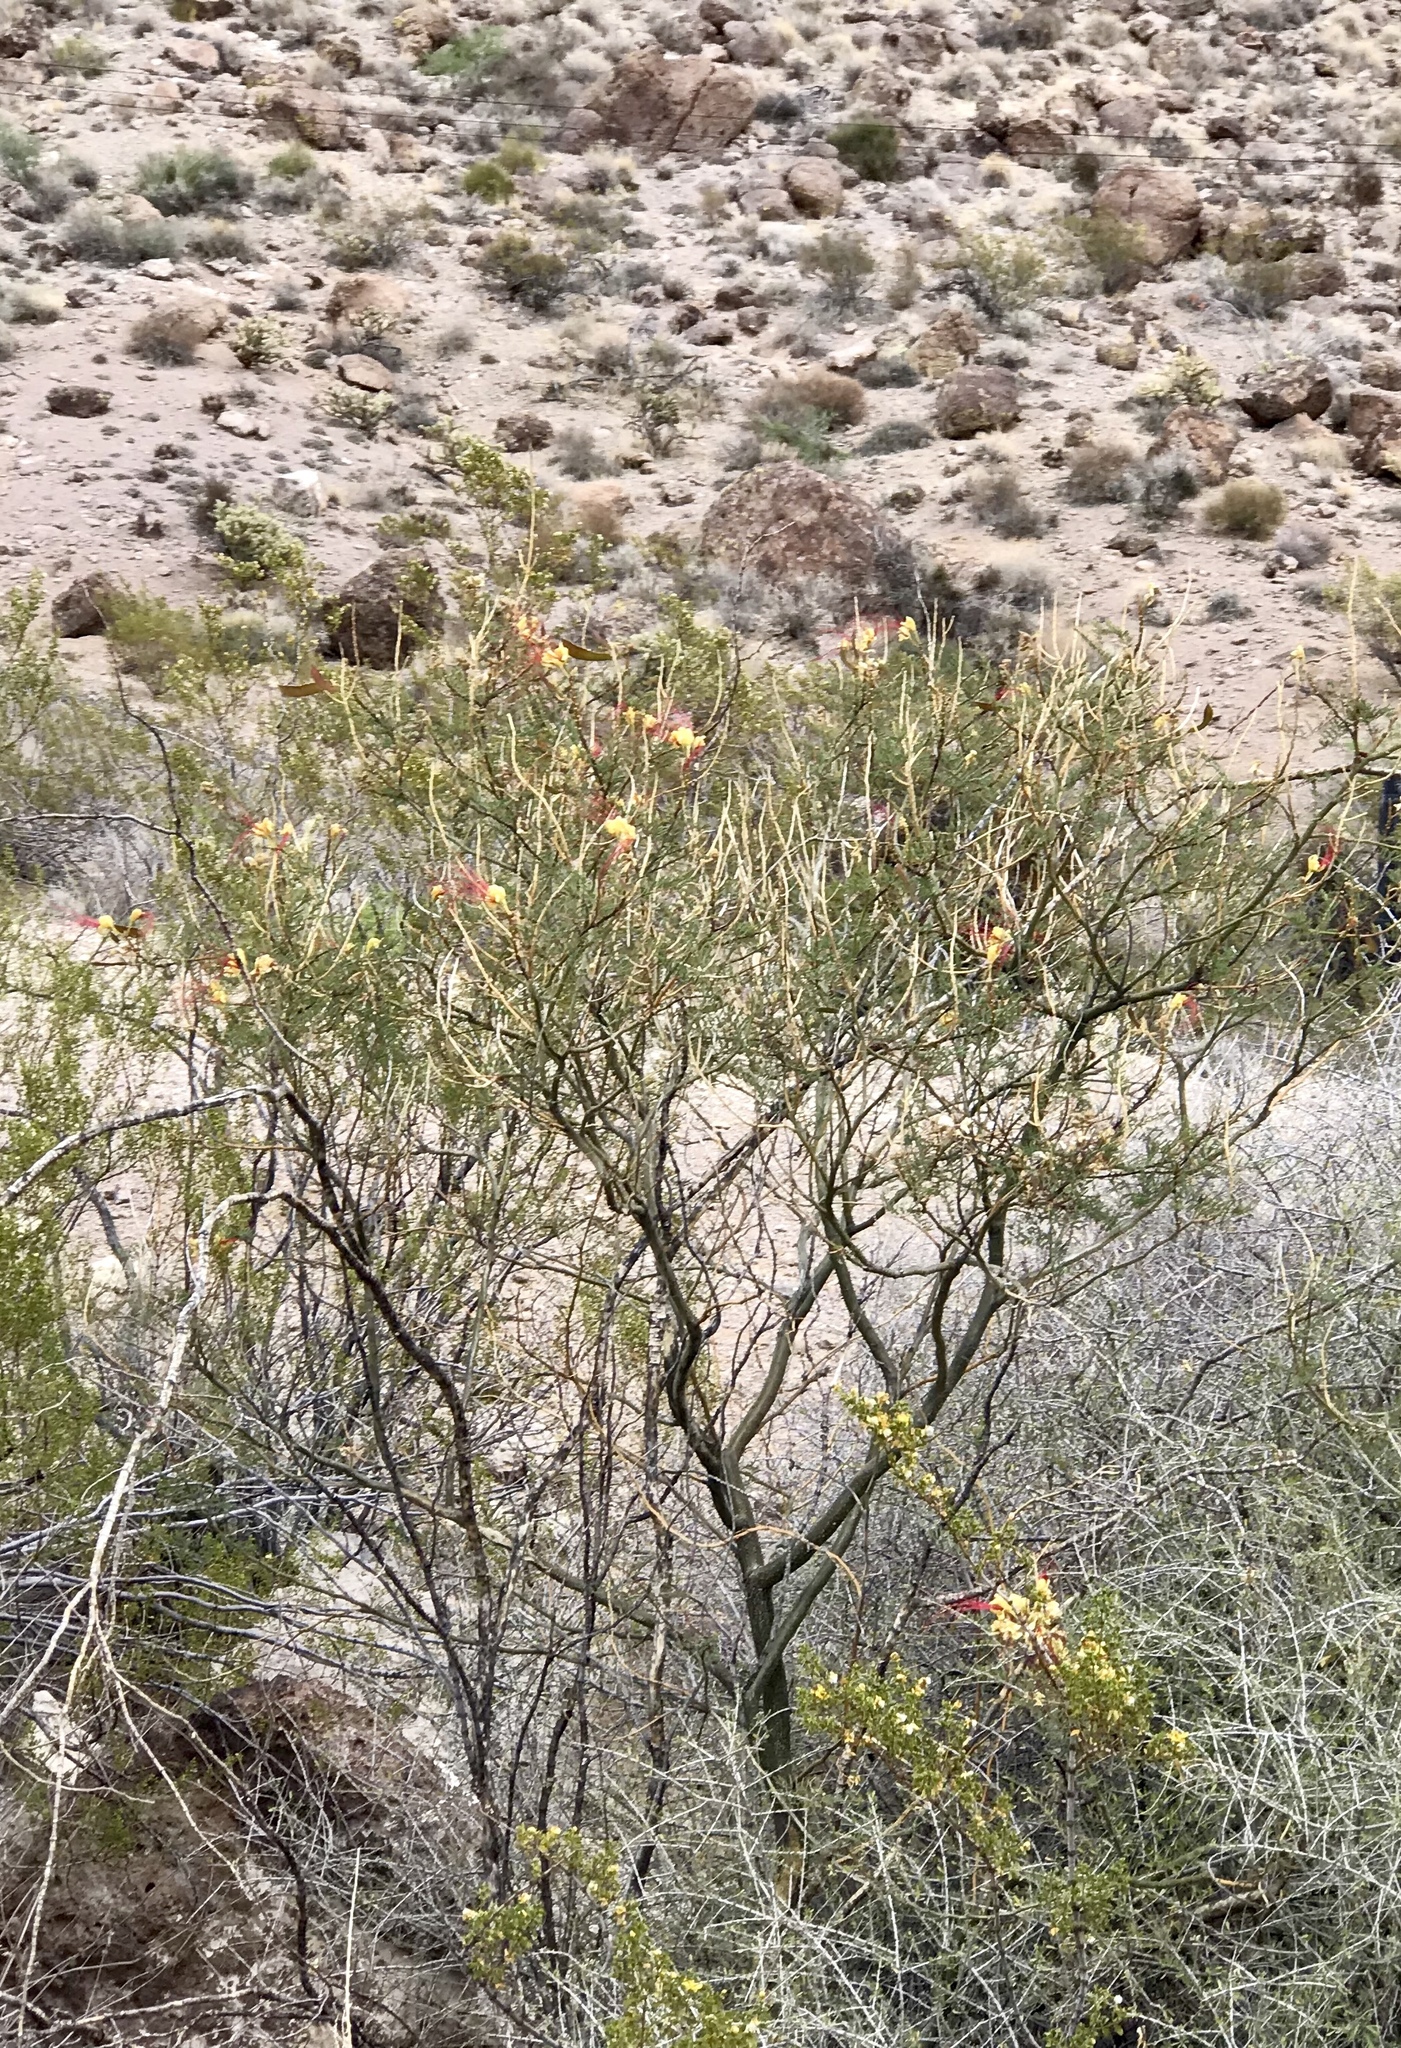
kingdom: Plantae
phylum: Tracheophyta
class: Magnoliopsida
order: Fabales
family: Fabaceae
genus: Erythrostemon
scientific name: Erythrostemon gilliesii
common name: Bird-of-paradise shrub
